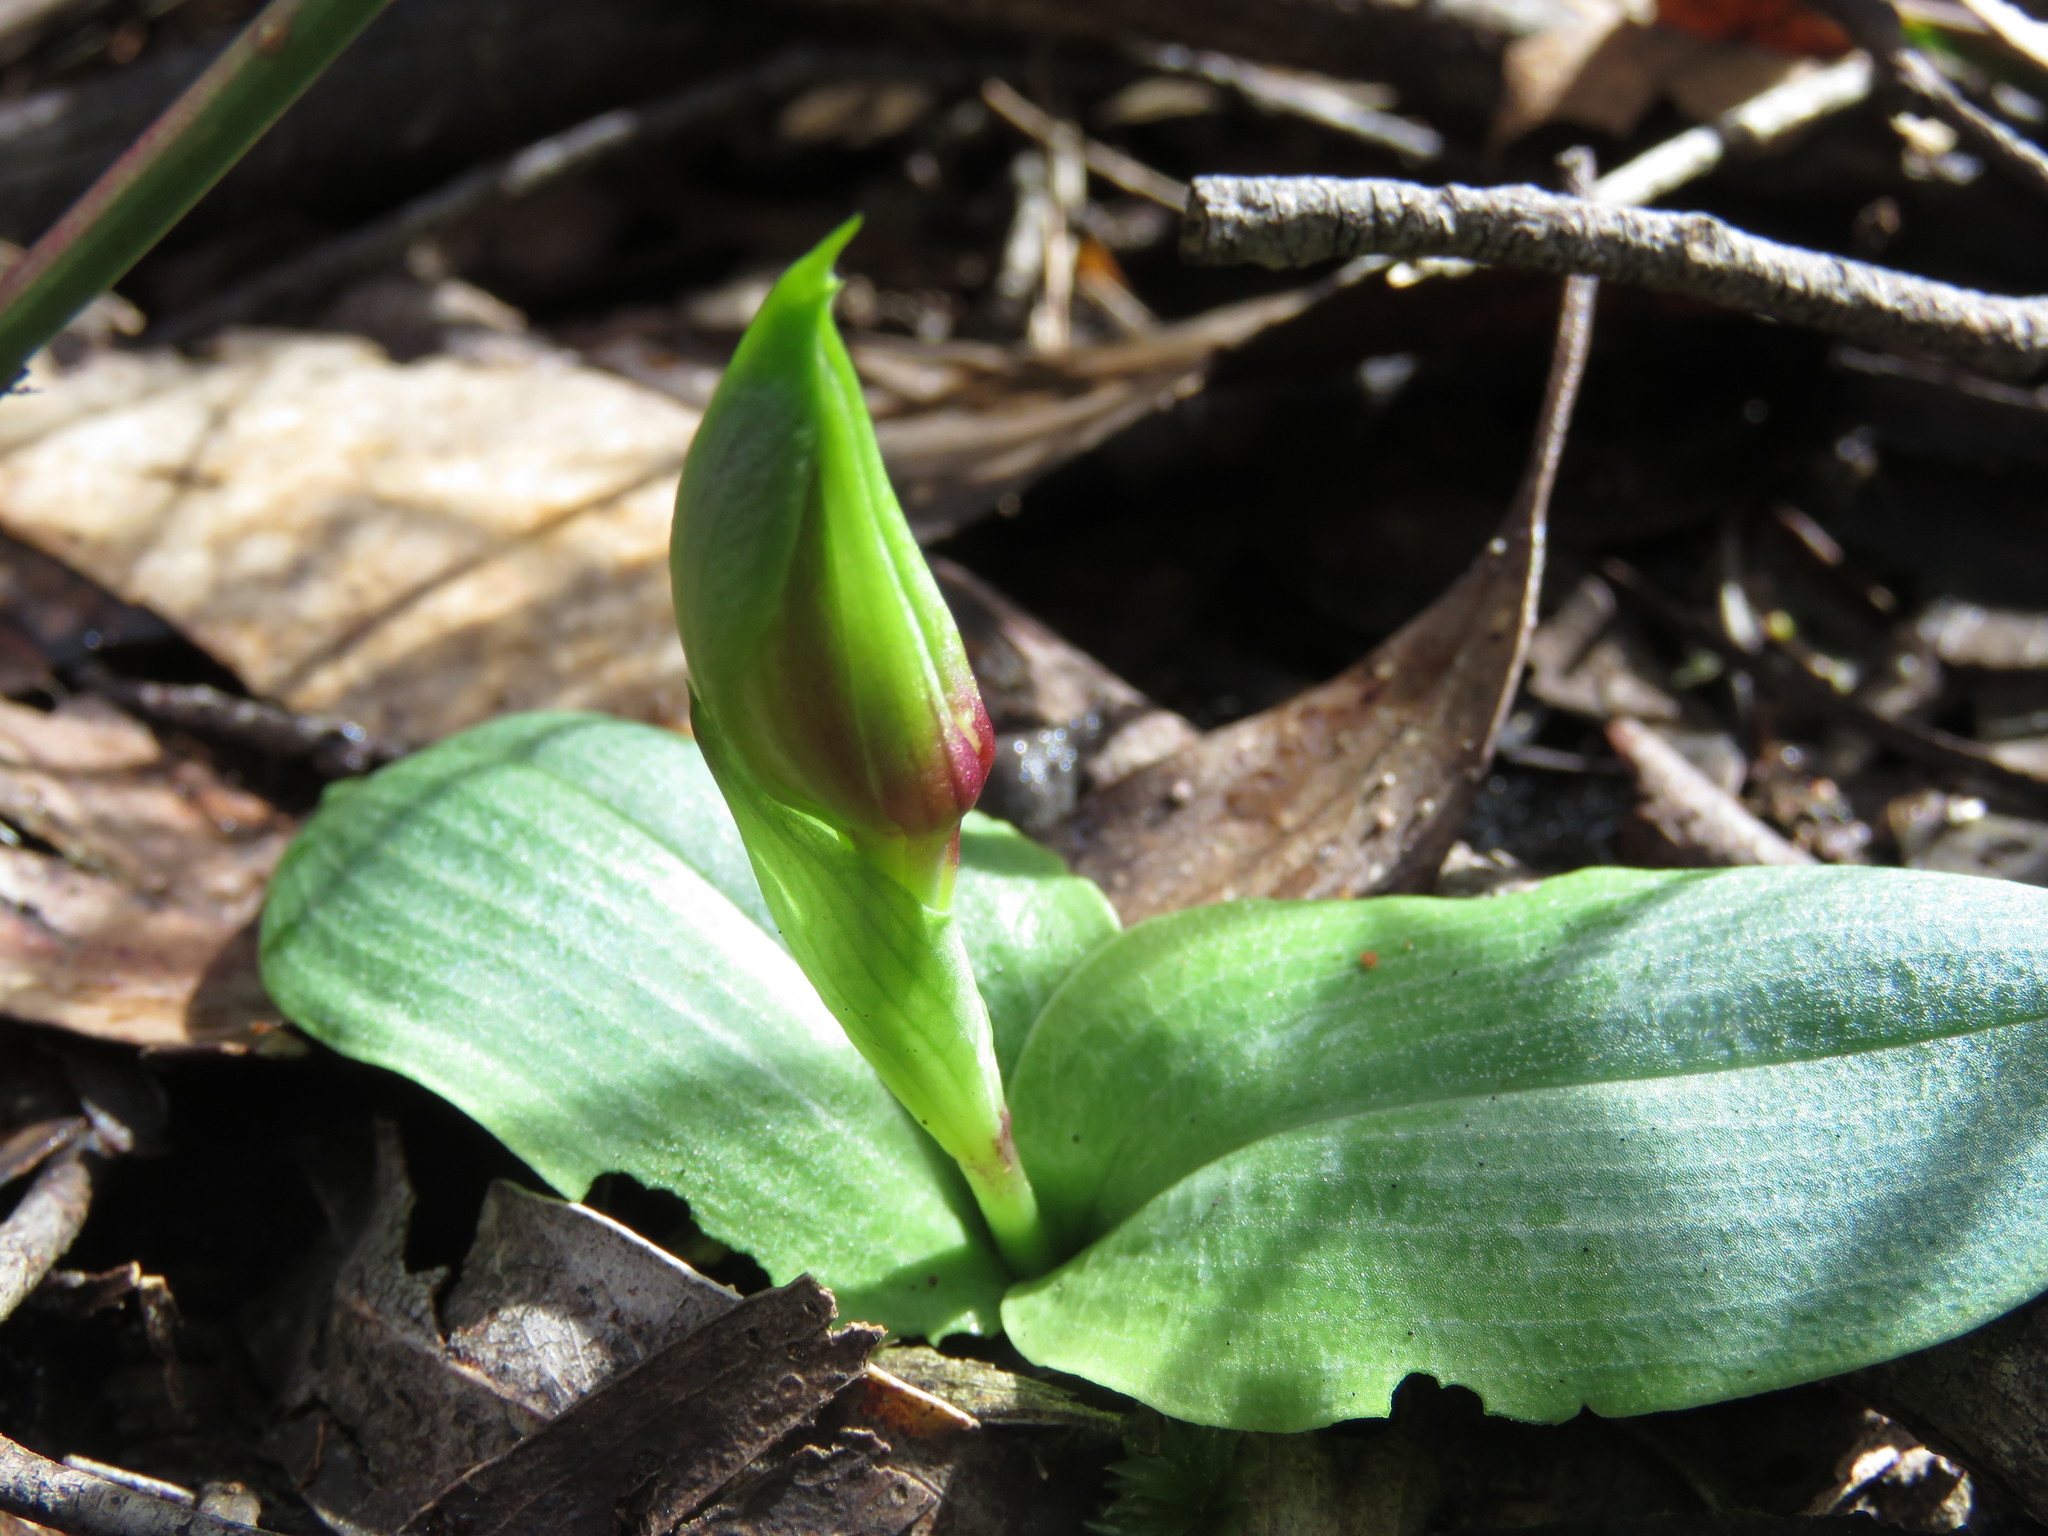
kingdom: Plantae
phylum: Tracheophyta
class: Liliopsida
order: Asparagales
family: Orchidaceae
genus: Chiloglottis
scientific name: Chiloglottis valida
